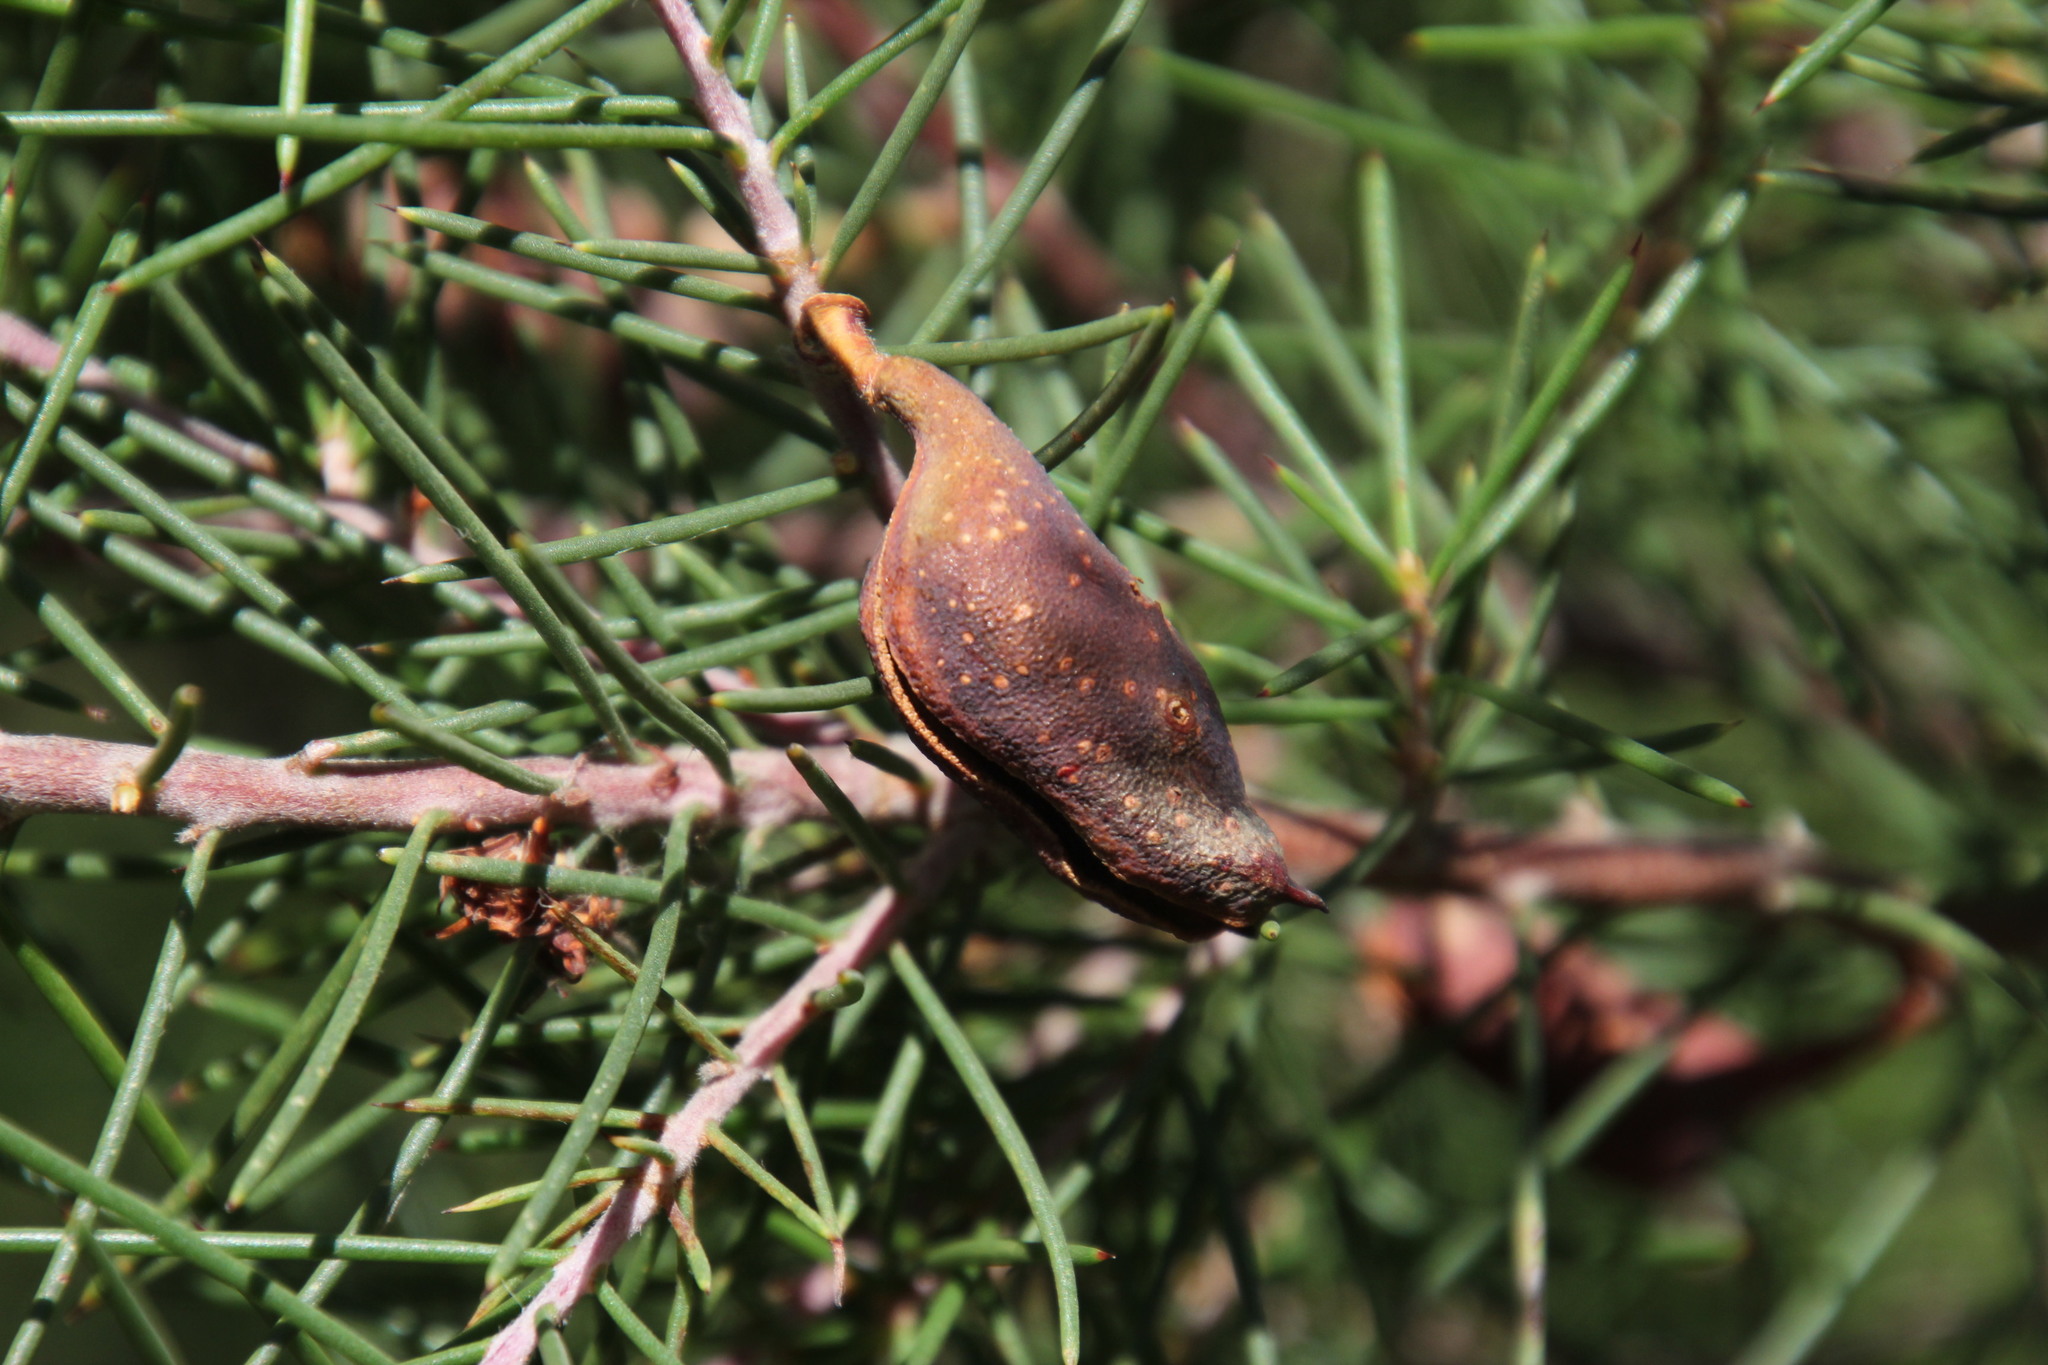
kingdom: Plantae
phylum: Tracheophyta
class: Magnoliopsida
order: Proteales
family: Proteaceae
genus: Hakea
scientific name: Hakea sericea
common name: Needle bush
